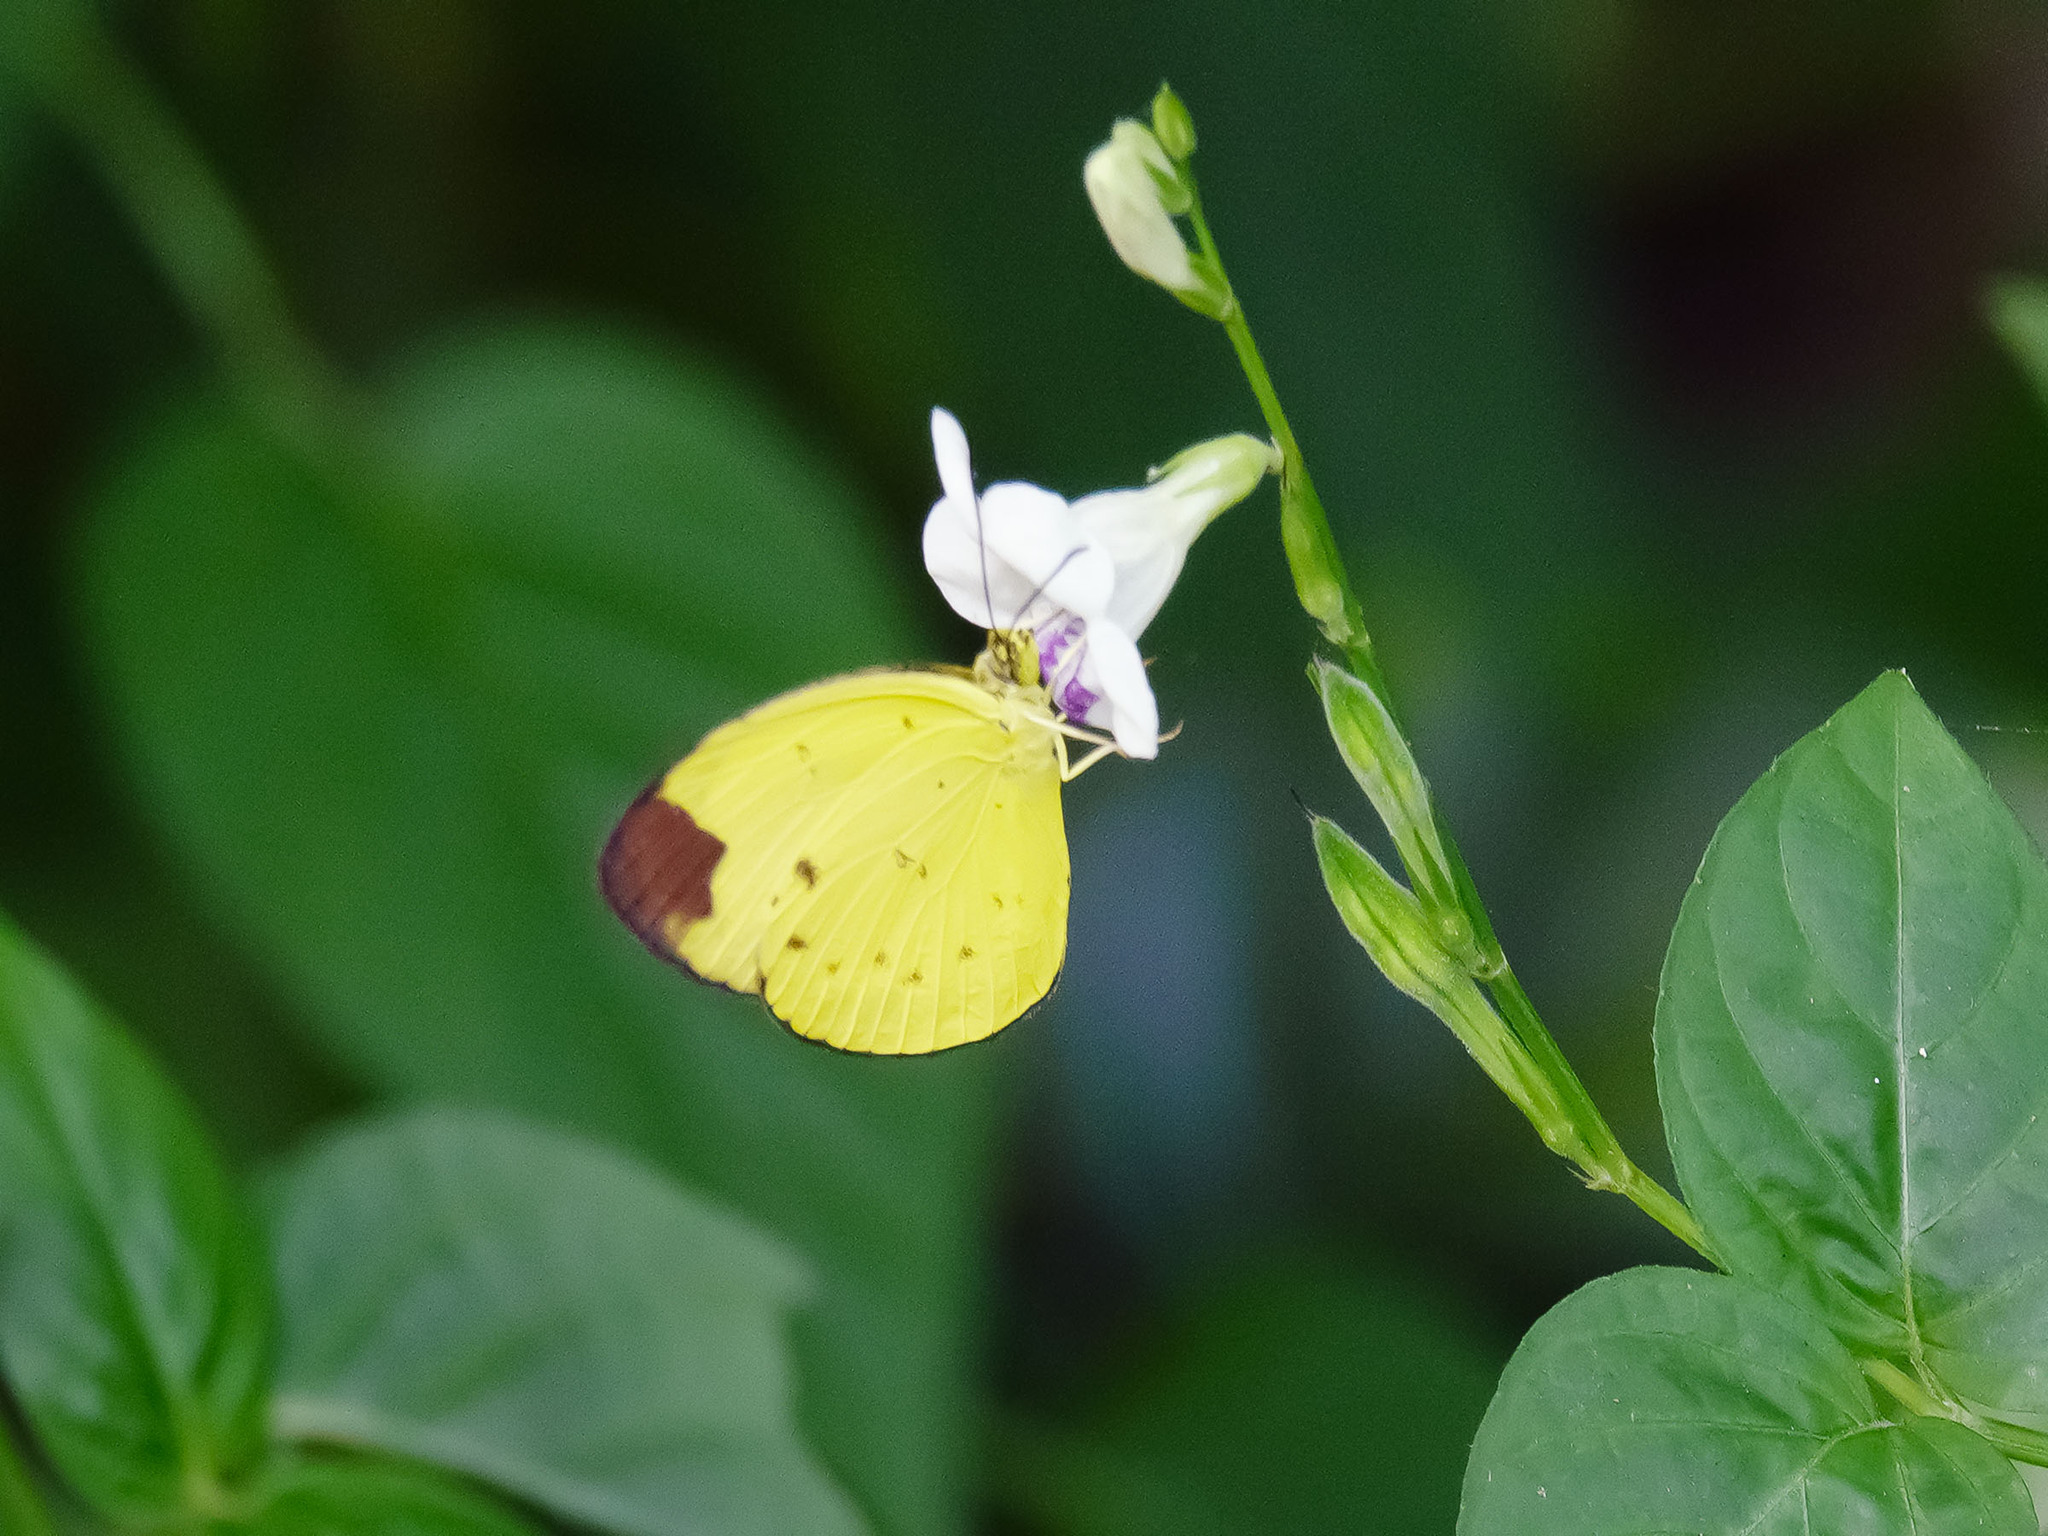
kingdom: Animalia
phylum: Arthropoda
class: Insecta
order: Lepidoptera
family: Pieridae
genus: Eurema
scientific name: Eurema sarilata
